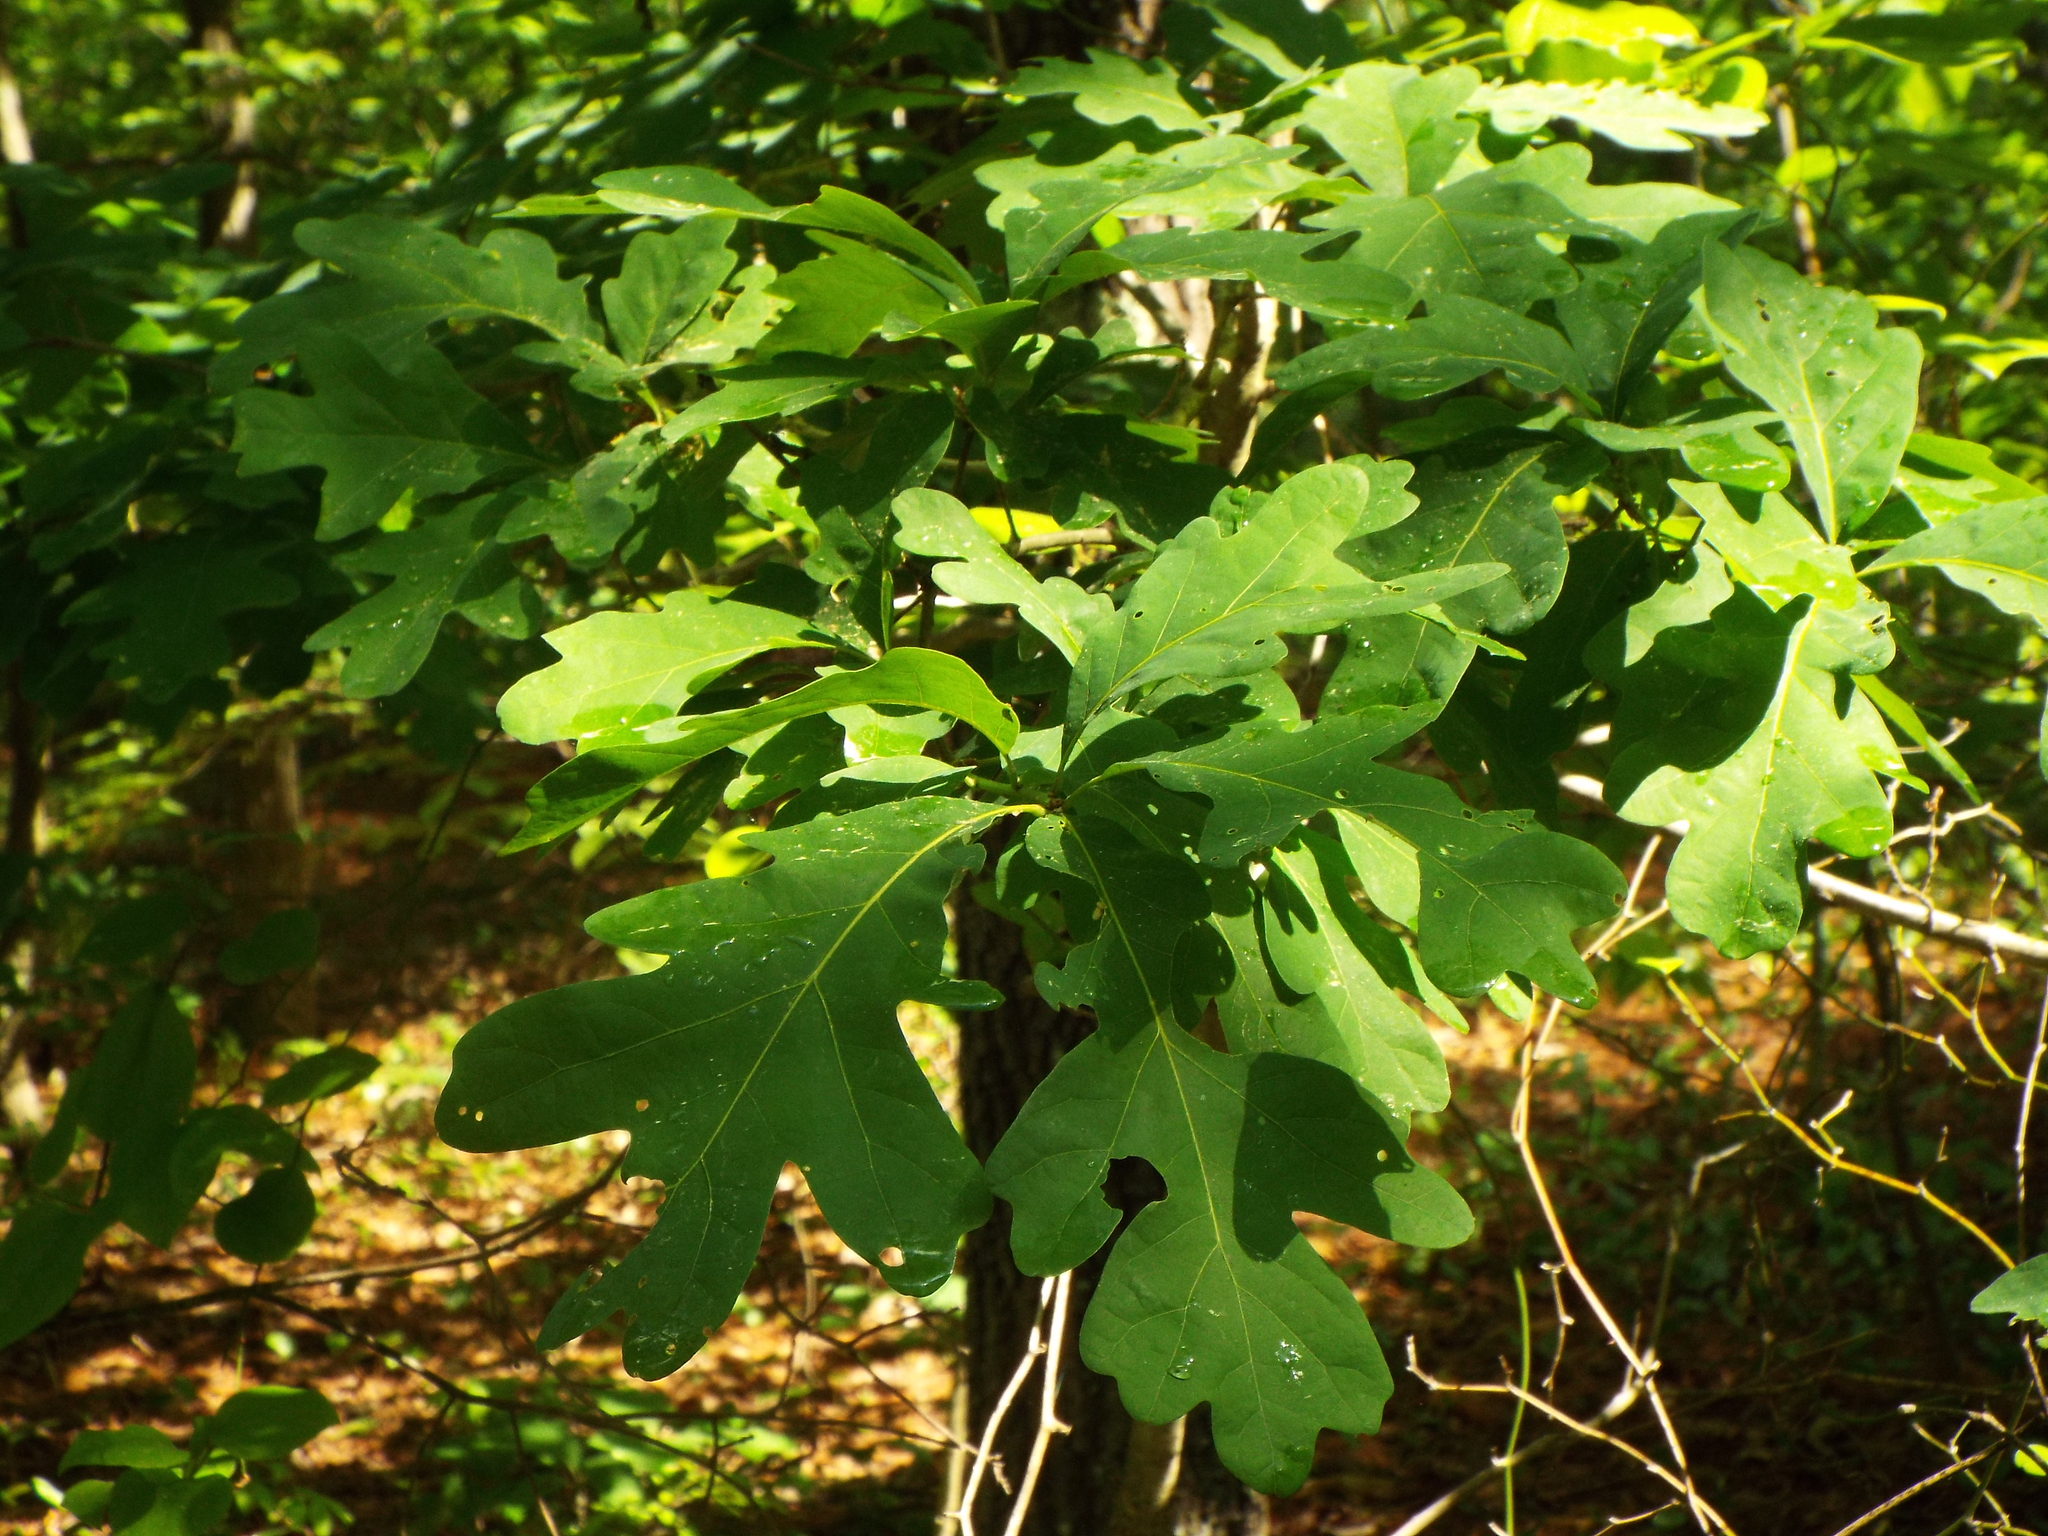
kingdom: Plantae
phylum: Tracheophyta
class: Magnoliopsida
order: Fagales
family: Fagaceae
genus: Quercus
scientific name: Quercus alba
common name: White oak
